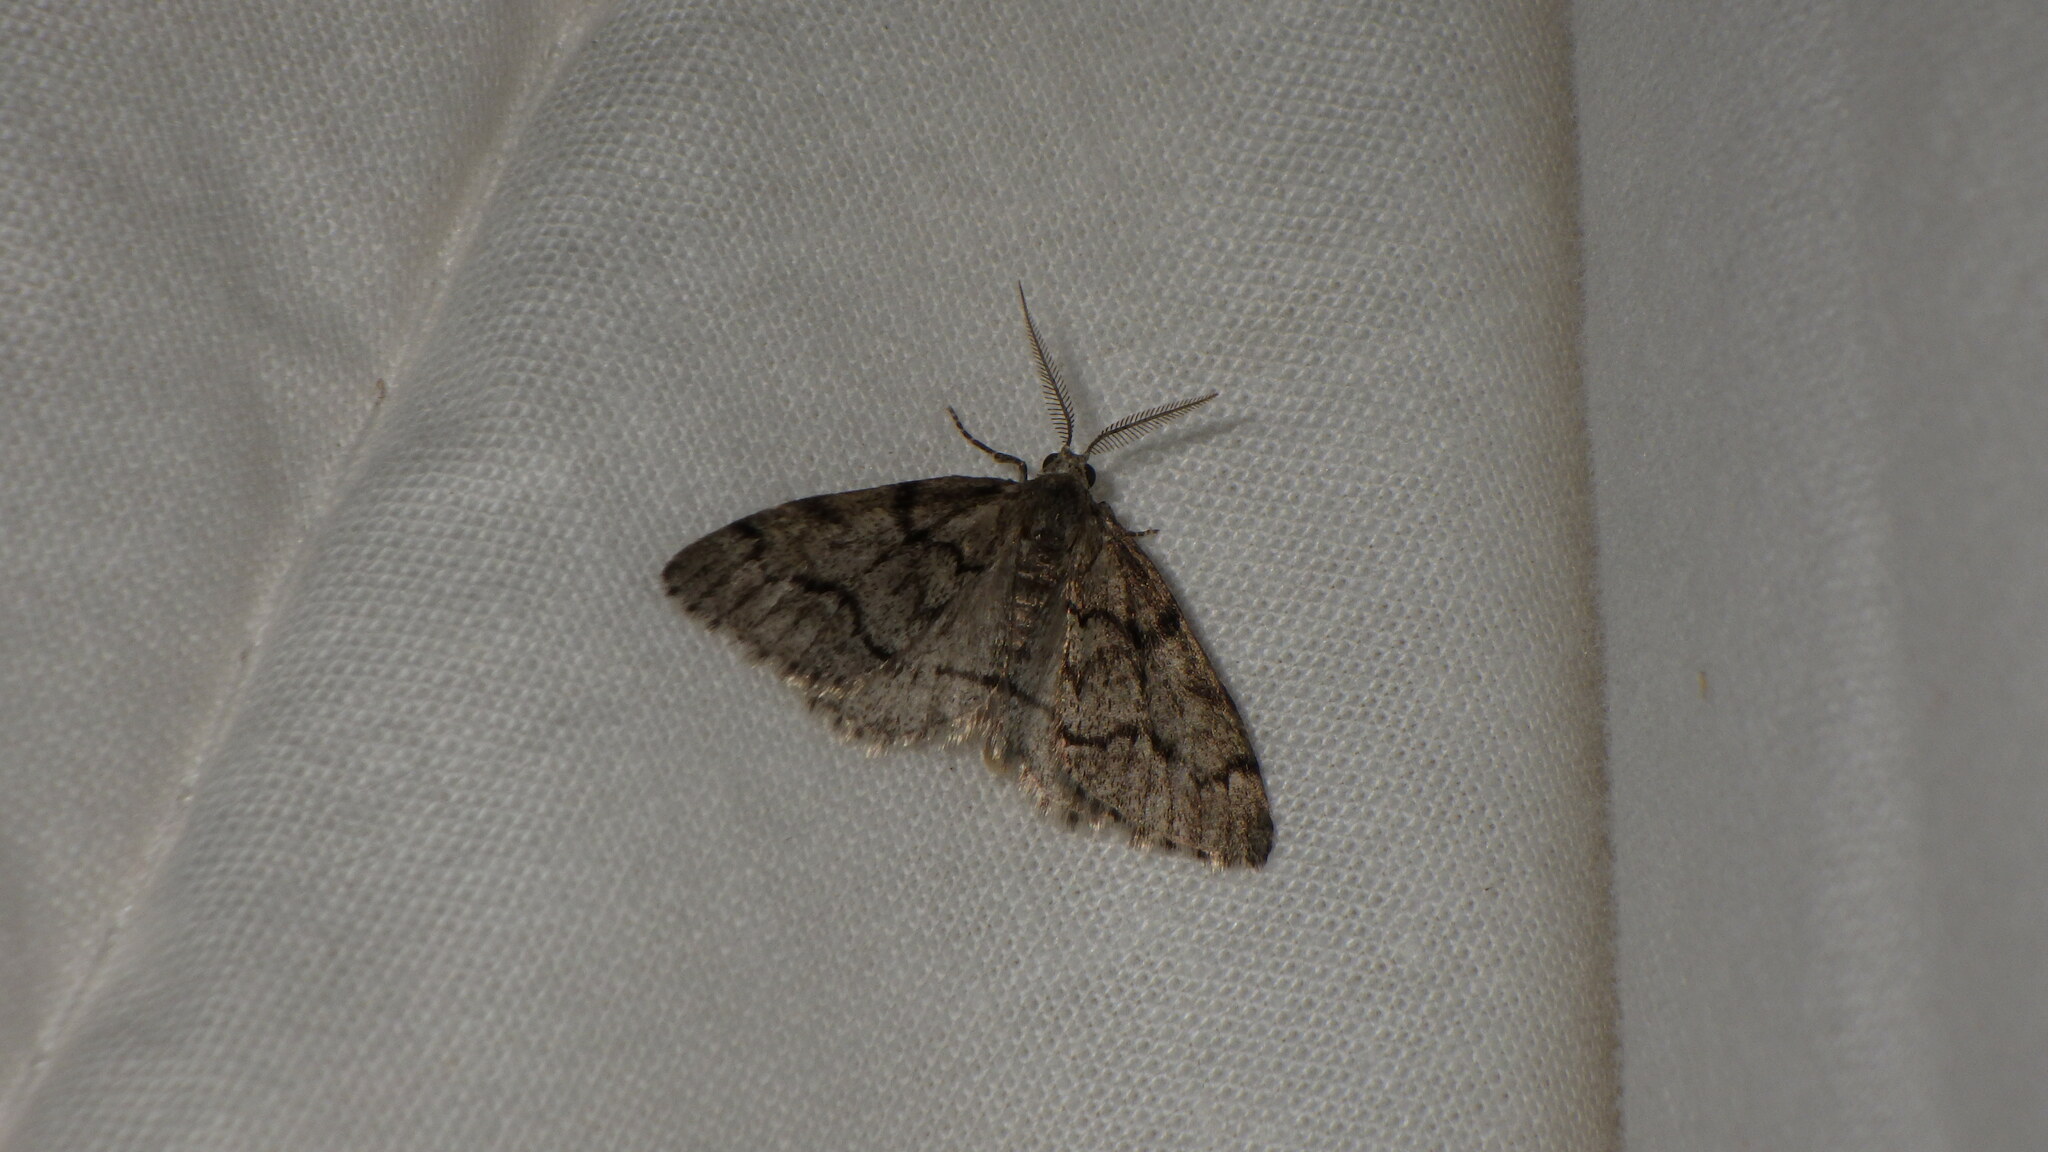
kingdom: Animalia
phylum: Arthropoda
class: Insecta
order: Lepidoptera
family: Geometridae
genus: Tephronia
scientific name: Tephronia sepiaria
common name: Dusky carpet
